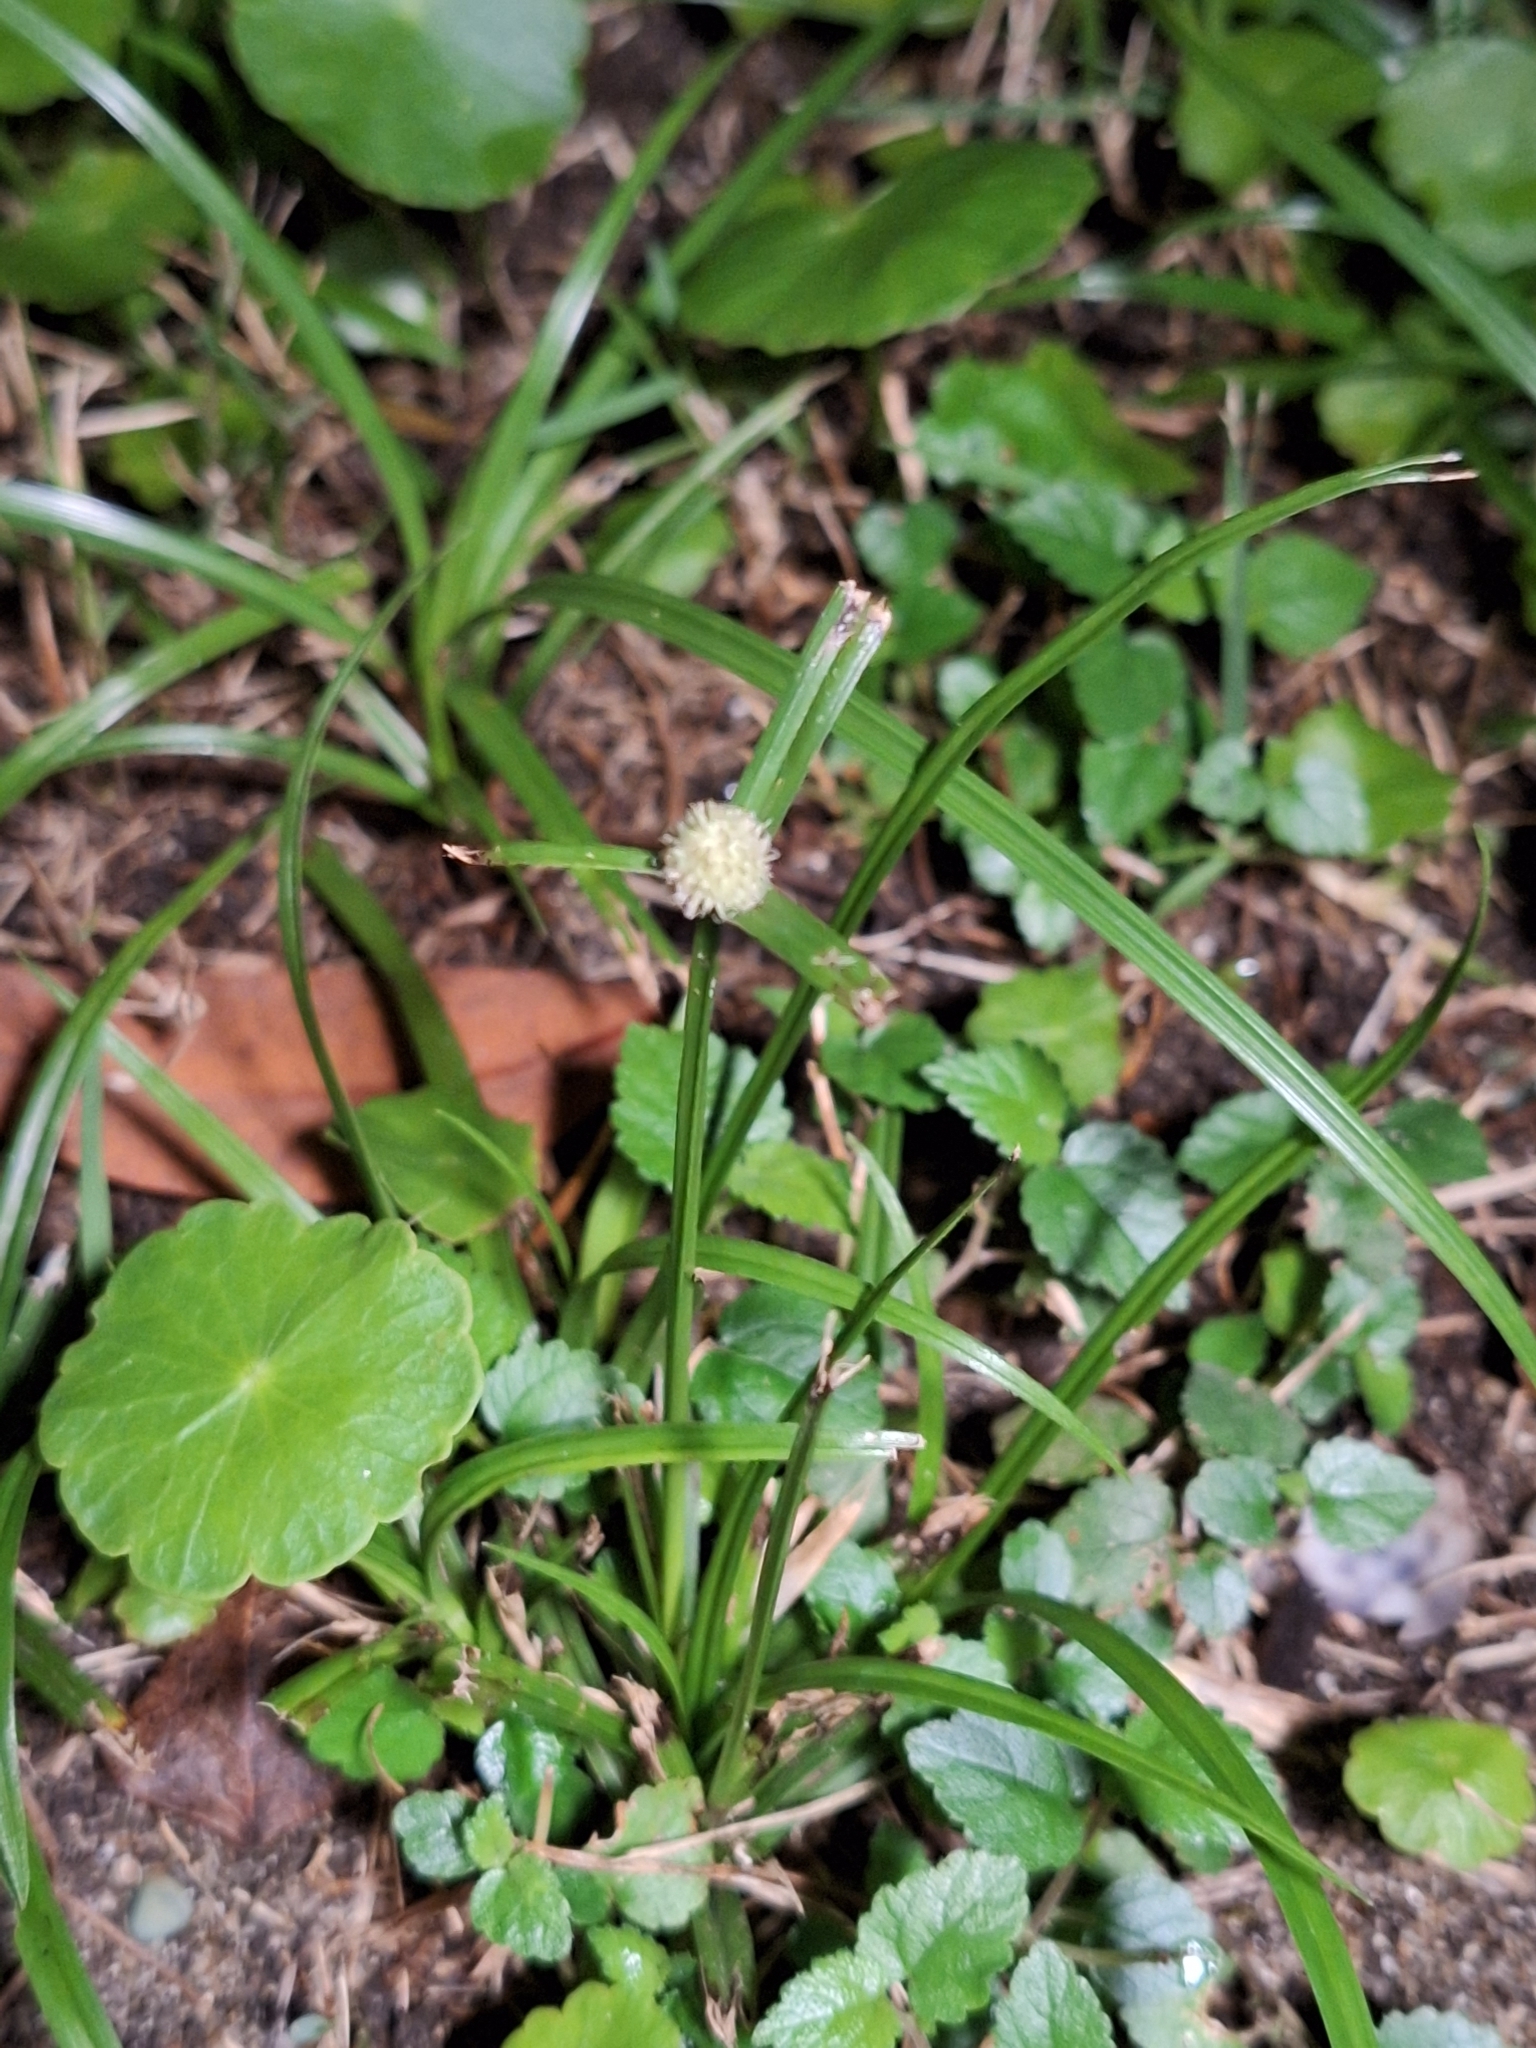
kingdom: Plantae
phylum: Tracheophyta
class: Liliopsida
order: Poales
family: Cyperaceae
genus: Cyperus
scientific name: Cyperus mindorensis
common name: Flatsedge
